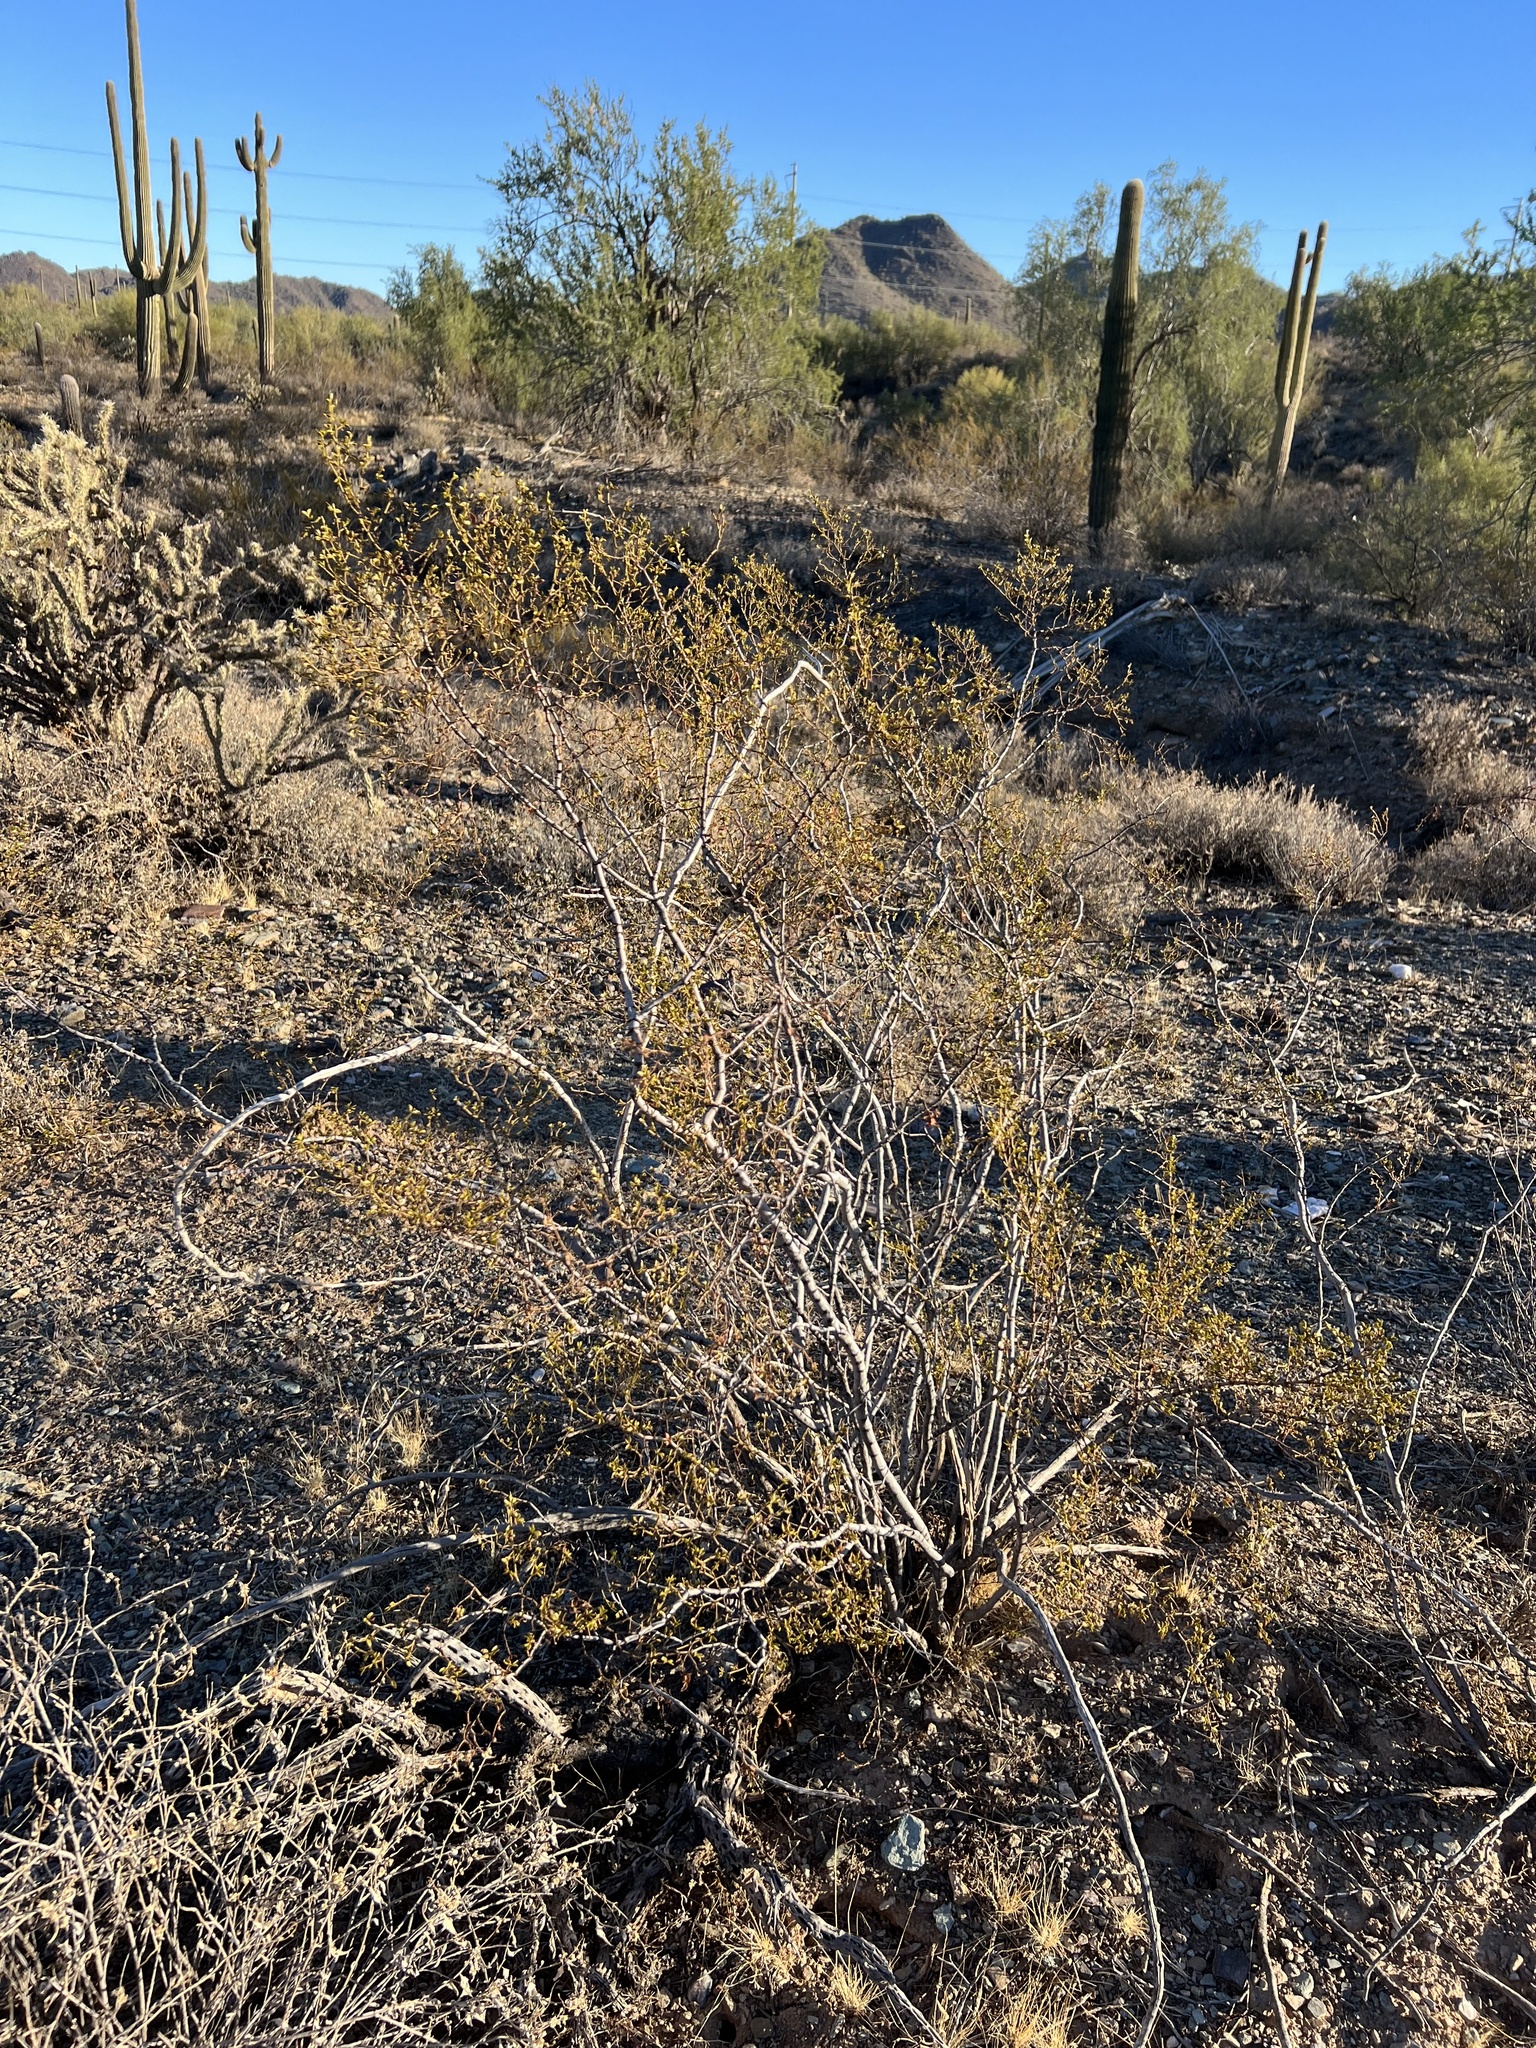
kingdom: Plantae
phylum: Tracheophyta
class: Magnoliopsida
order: Zygophyllales
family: Zygophyllaceae
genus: Larrea
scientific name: Larrea tridentata
